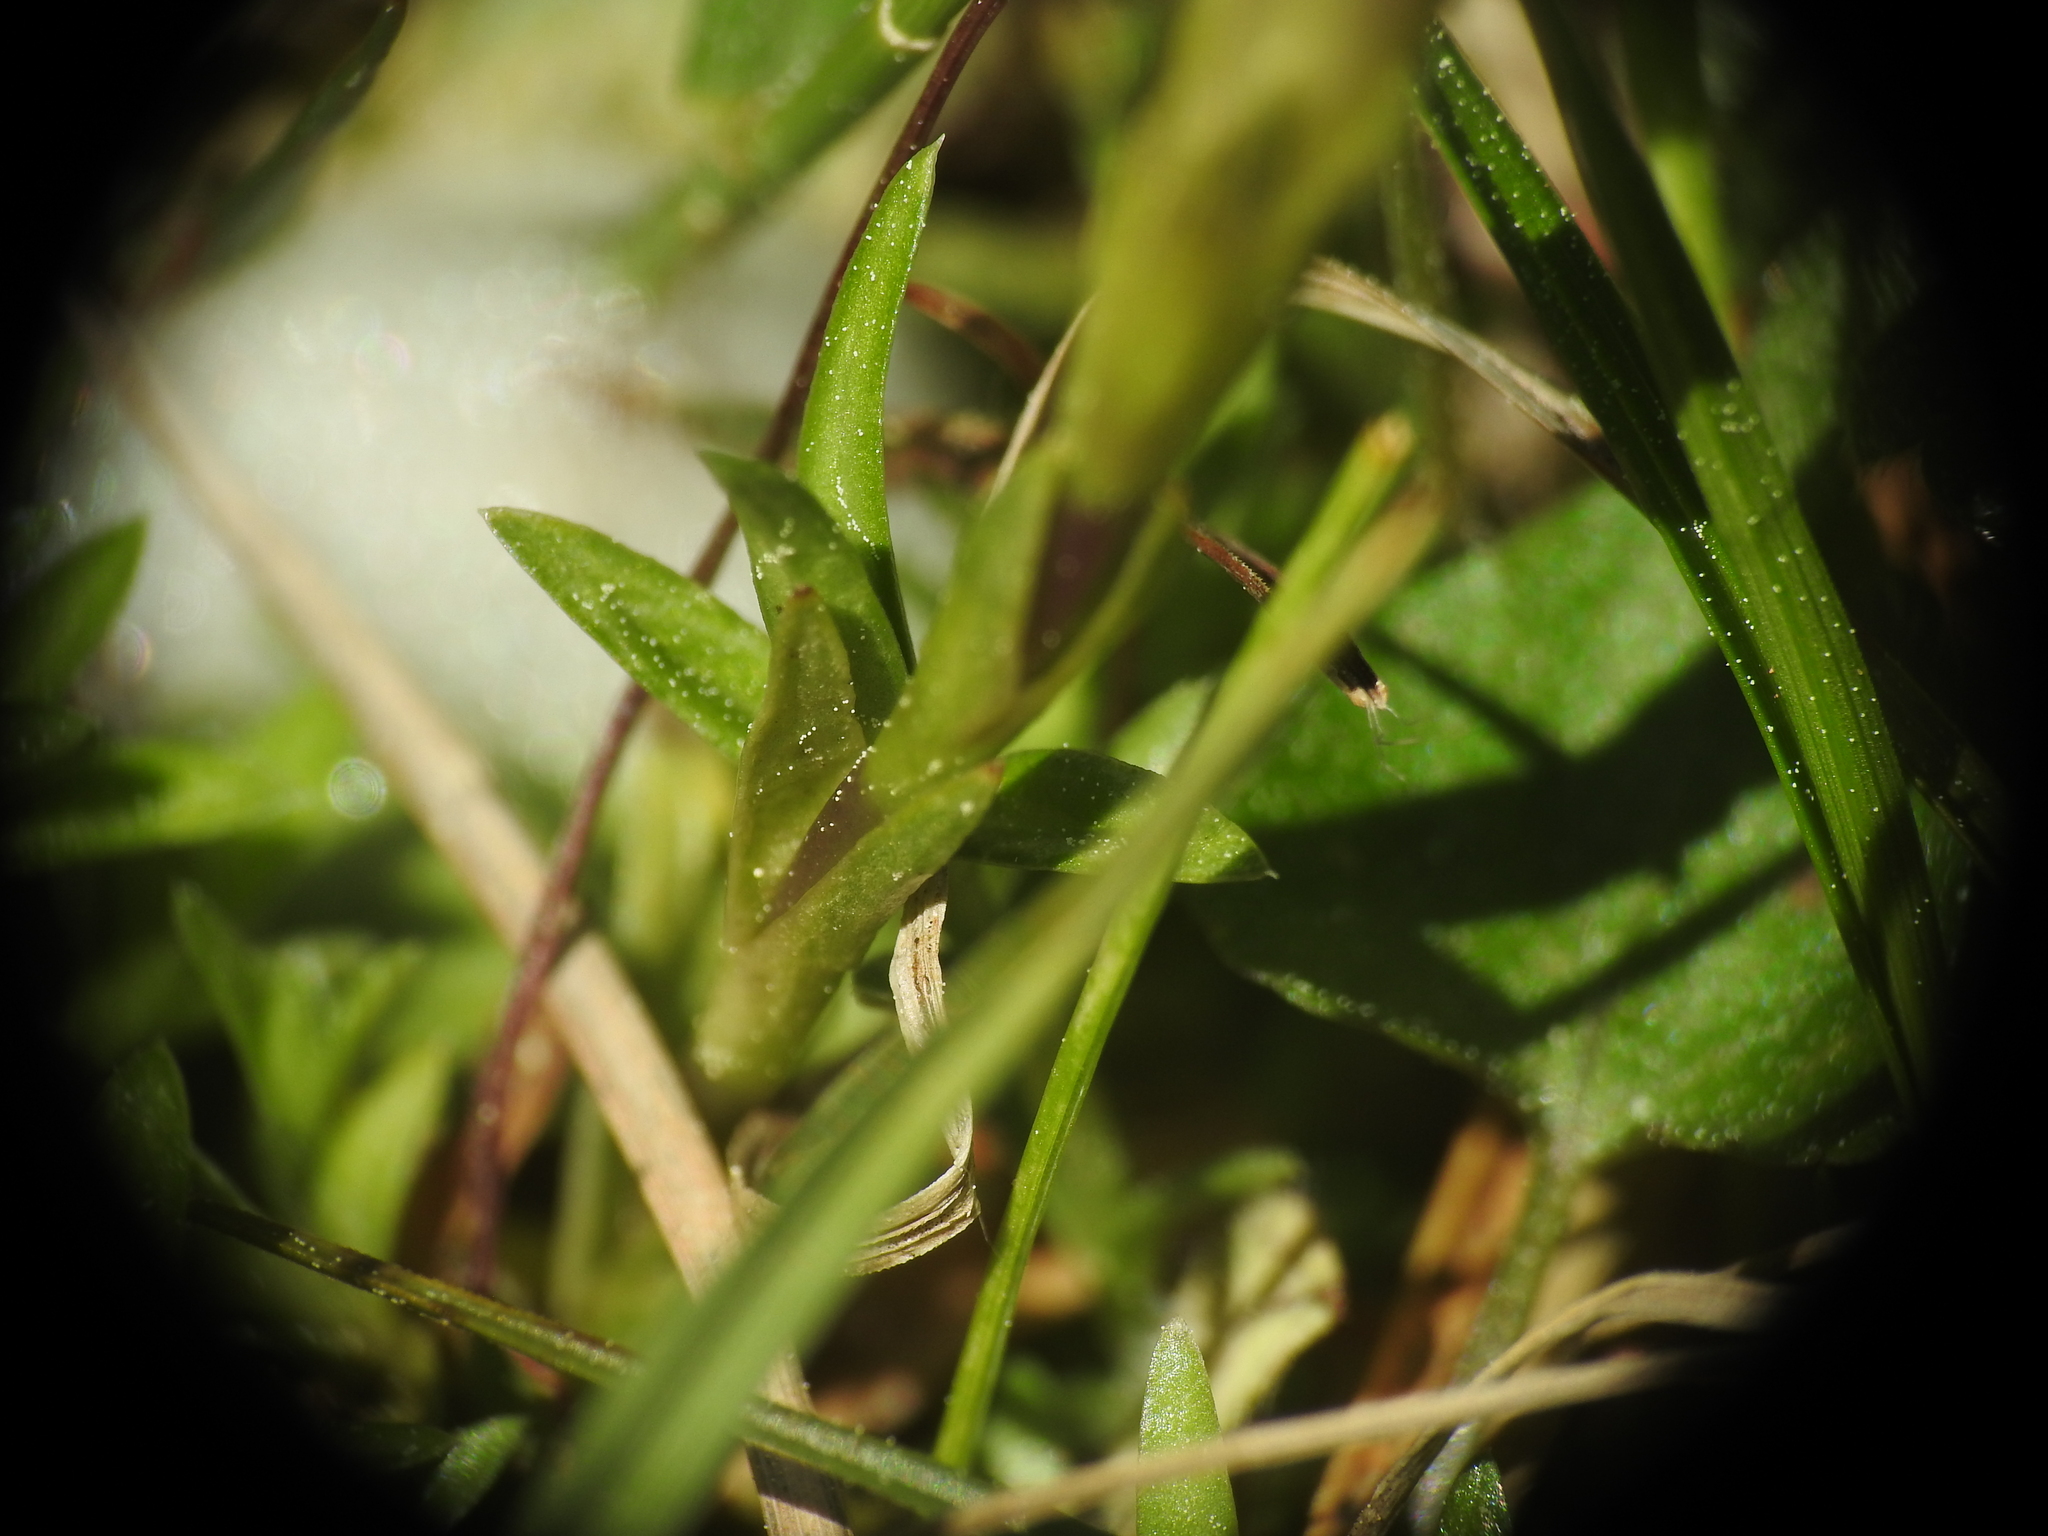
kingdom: Plantae
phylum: Tracheophyta
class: Magnoliopsida
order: Gentianales
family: Gentianaceae
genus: Gentiana
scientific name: Gentiana pyrenaica
